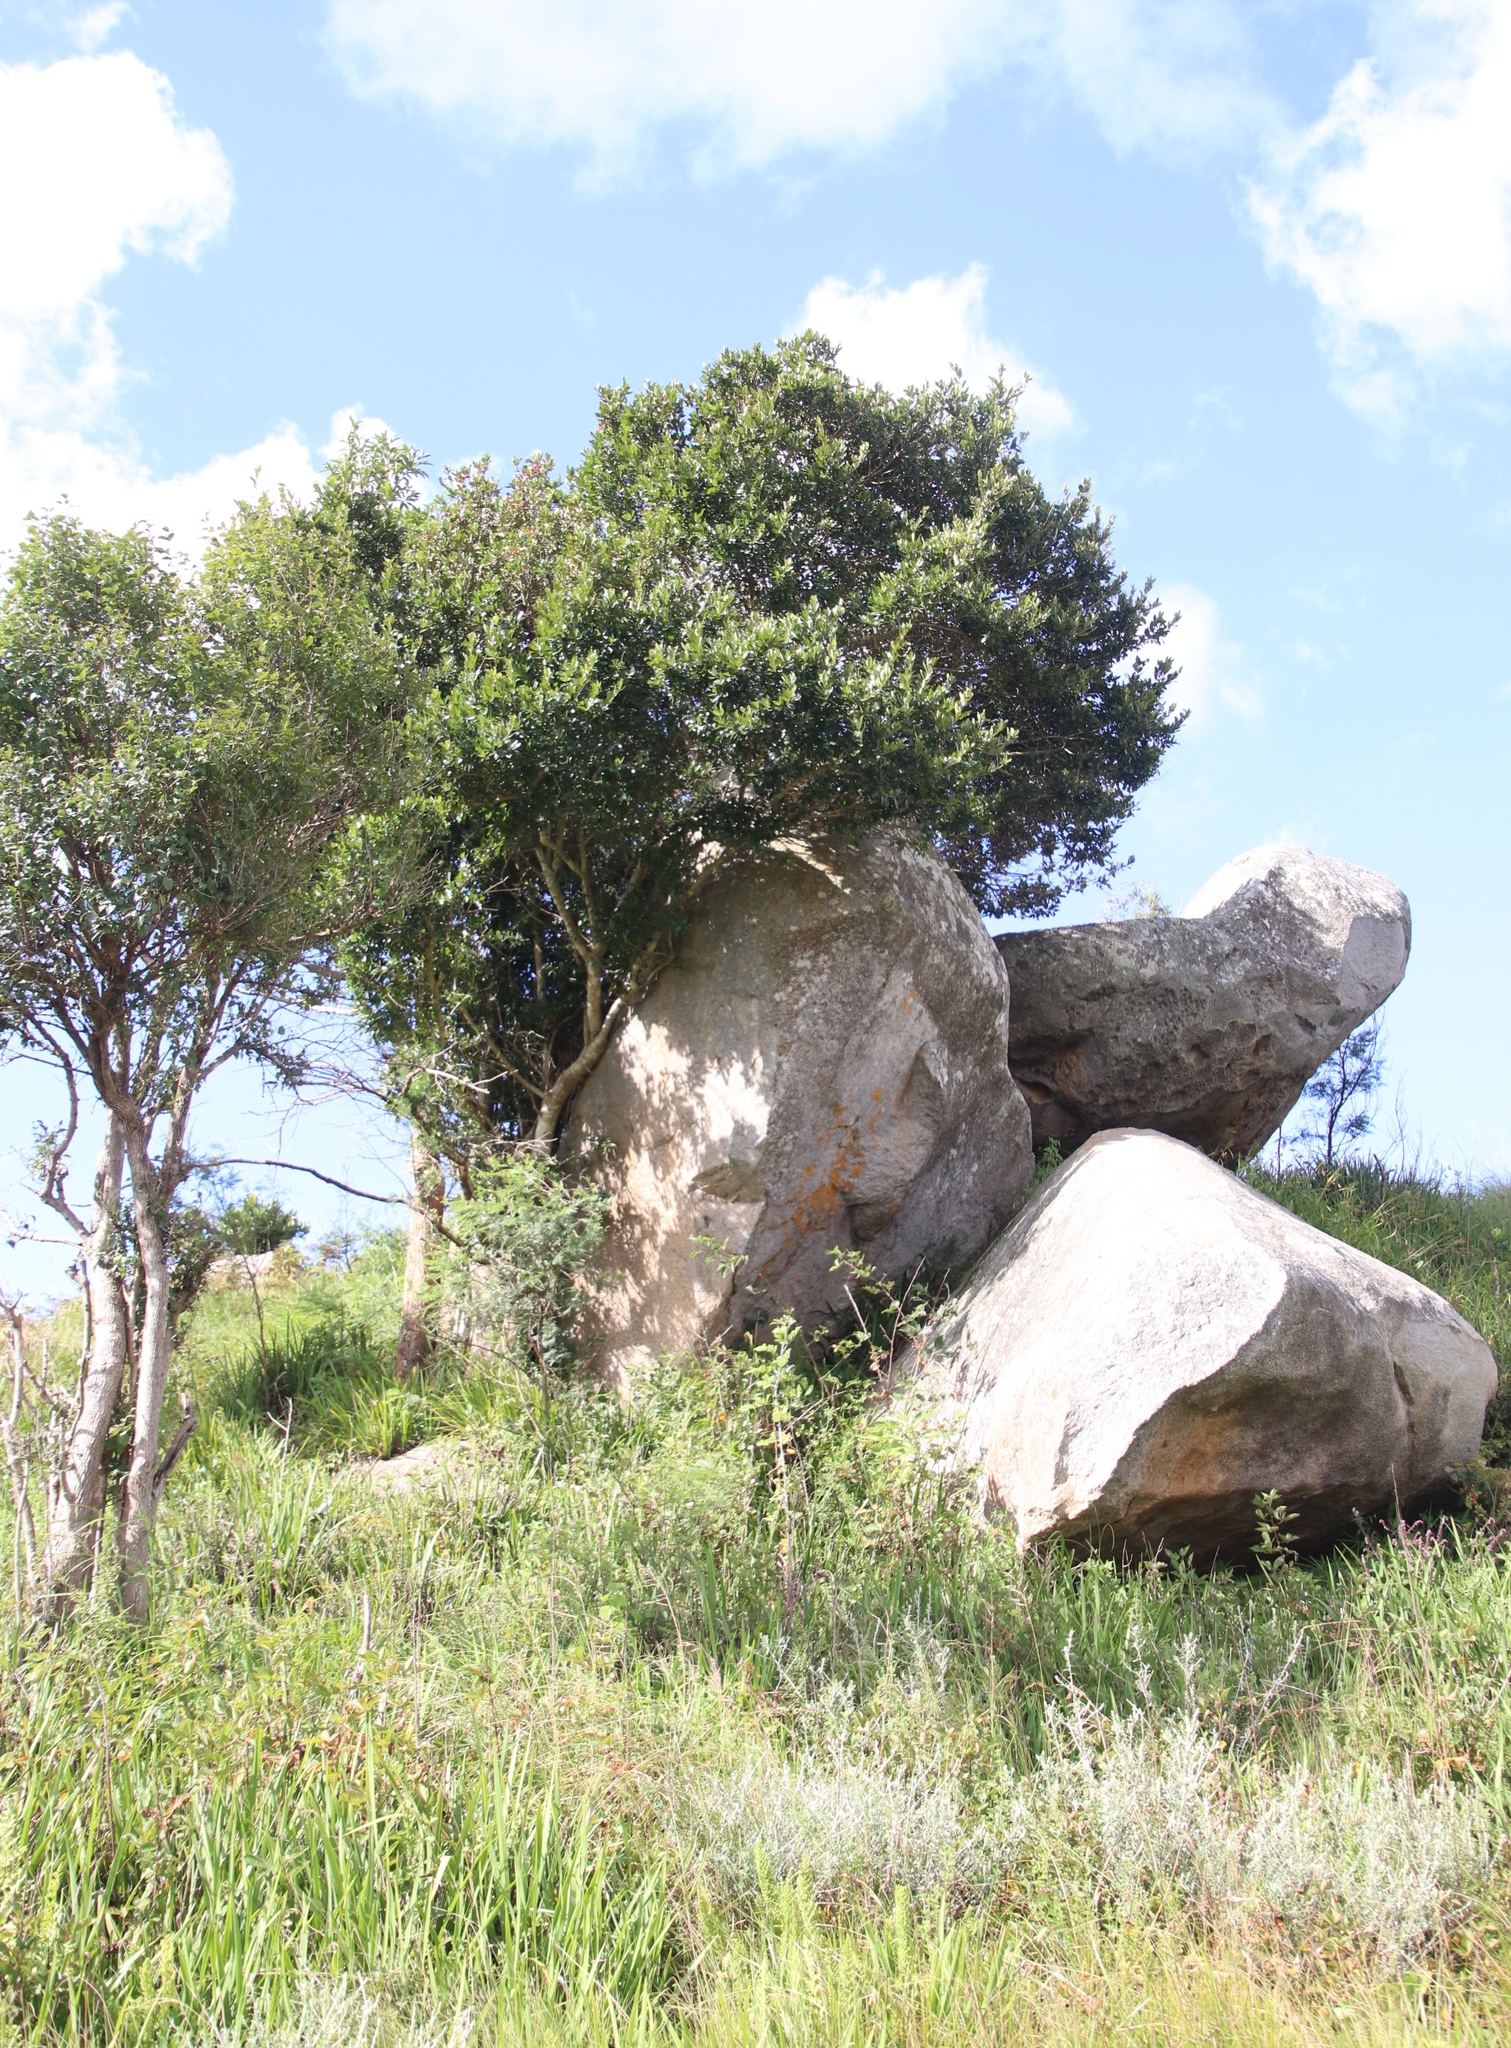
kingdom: Plantae
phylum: Tracheophyta
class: Magnoliopsida
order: Myrtales
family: Combretaceae
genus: Combretum
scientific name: Combretum kraussii
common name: Forest bushwillow
